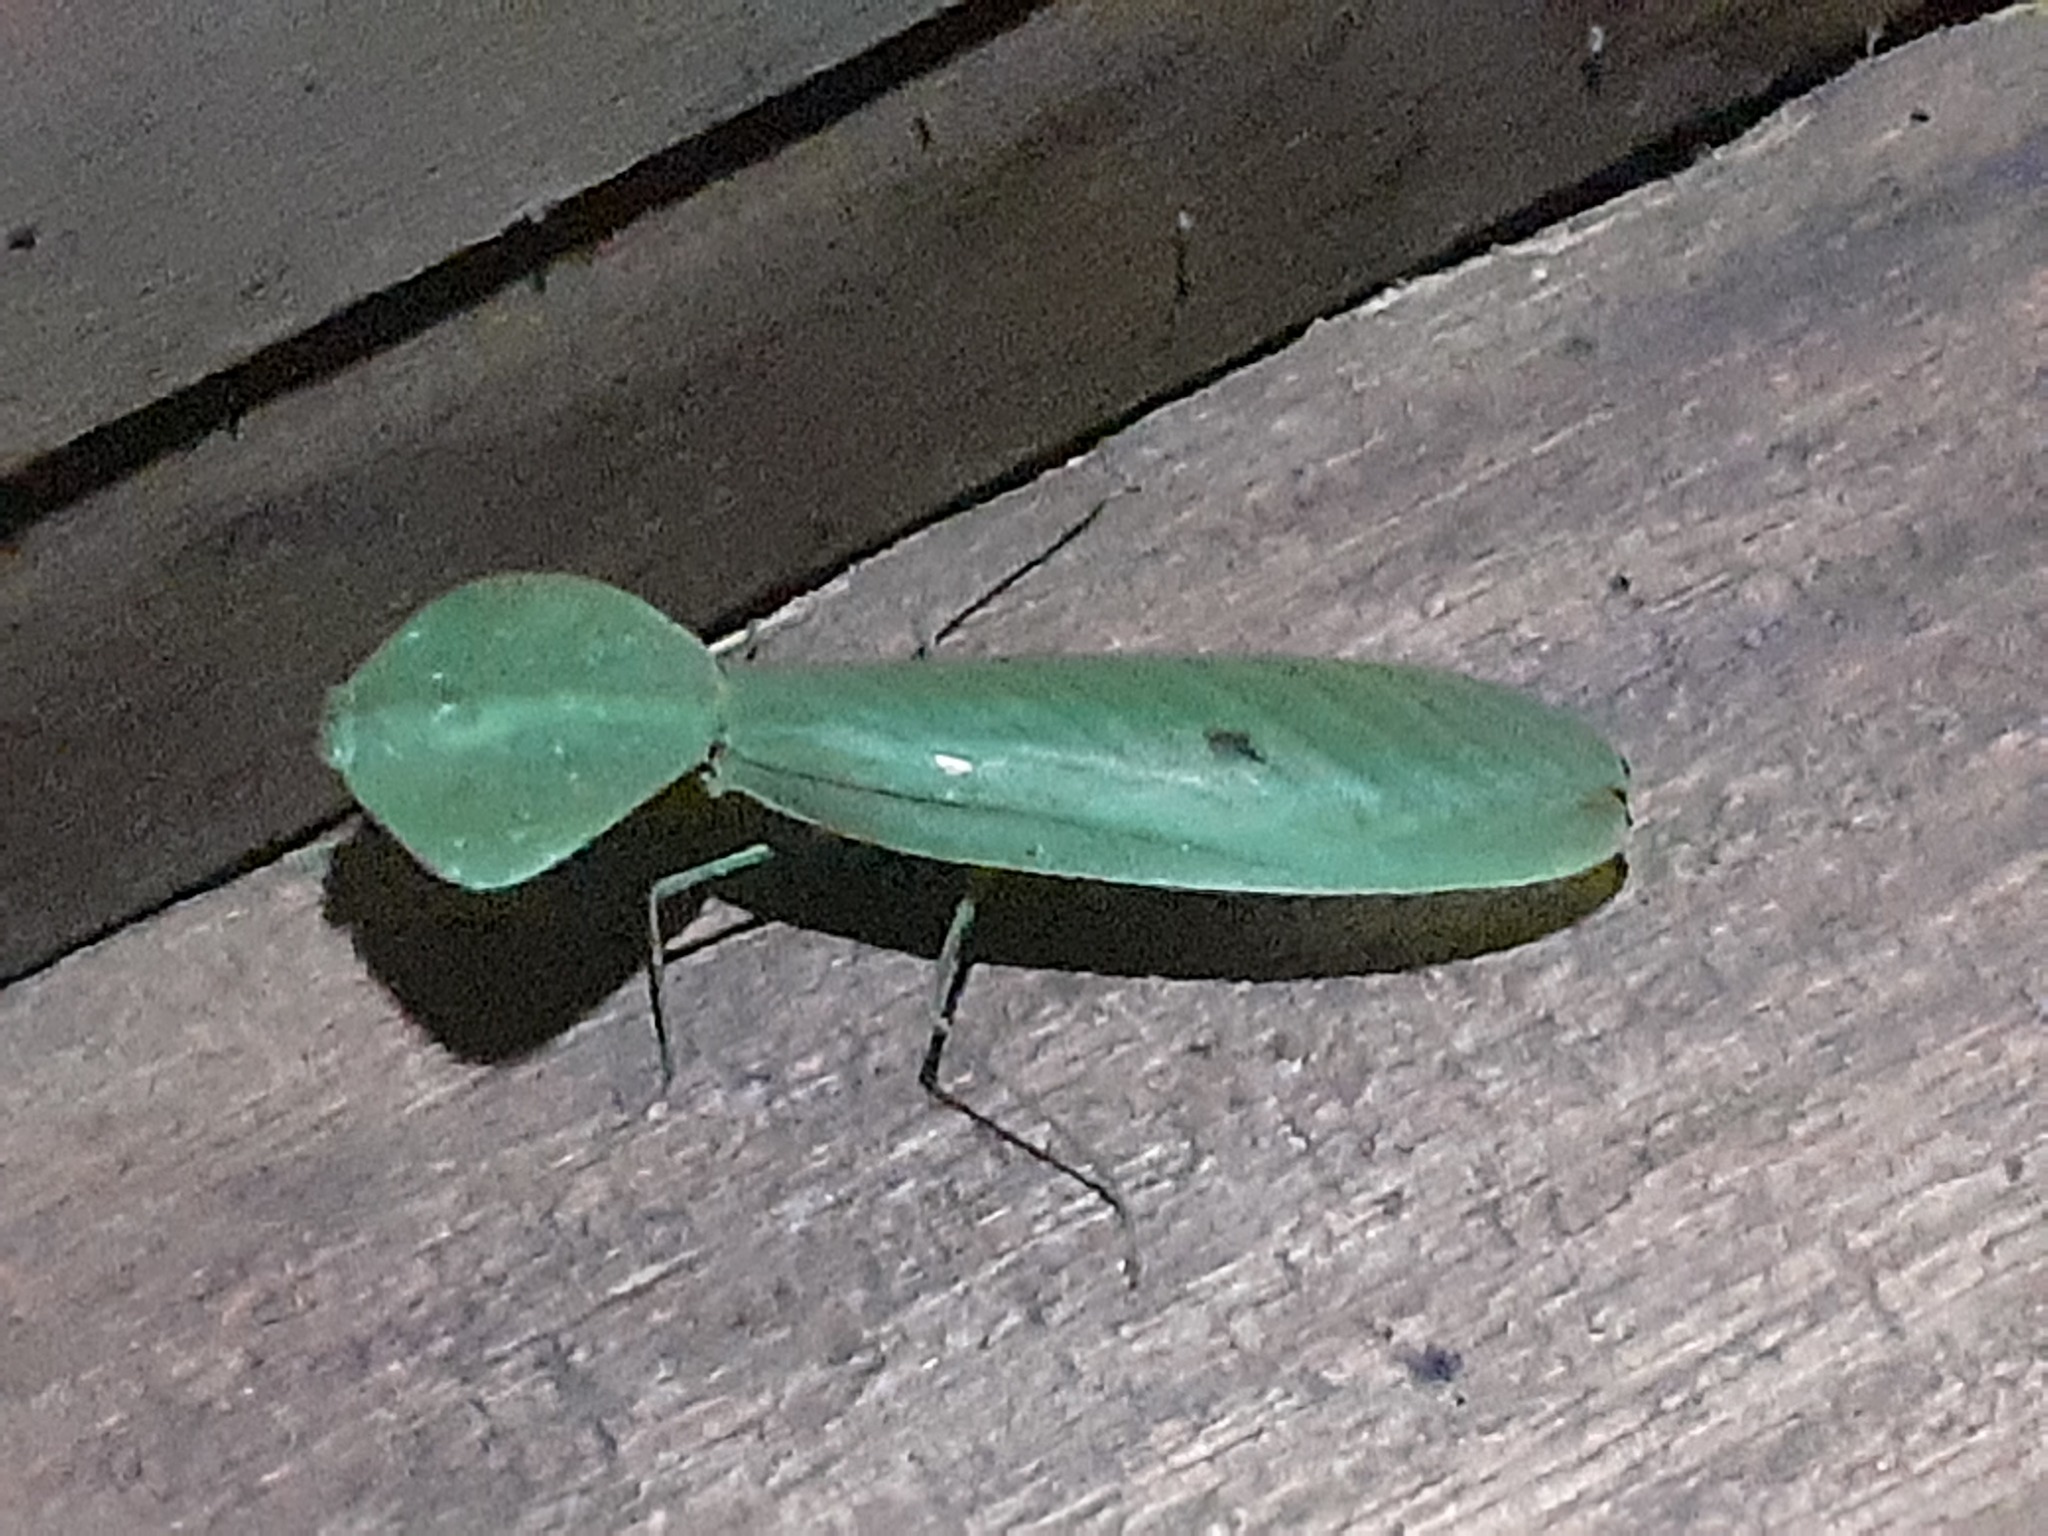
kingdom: Animalia
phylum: Arthropoda
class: Insecta
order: Mantodea
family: Mantidae
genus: Choeradodis
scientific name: Choeradodis rhombicollis
